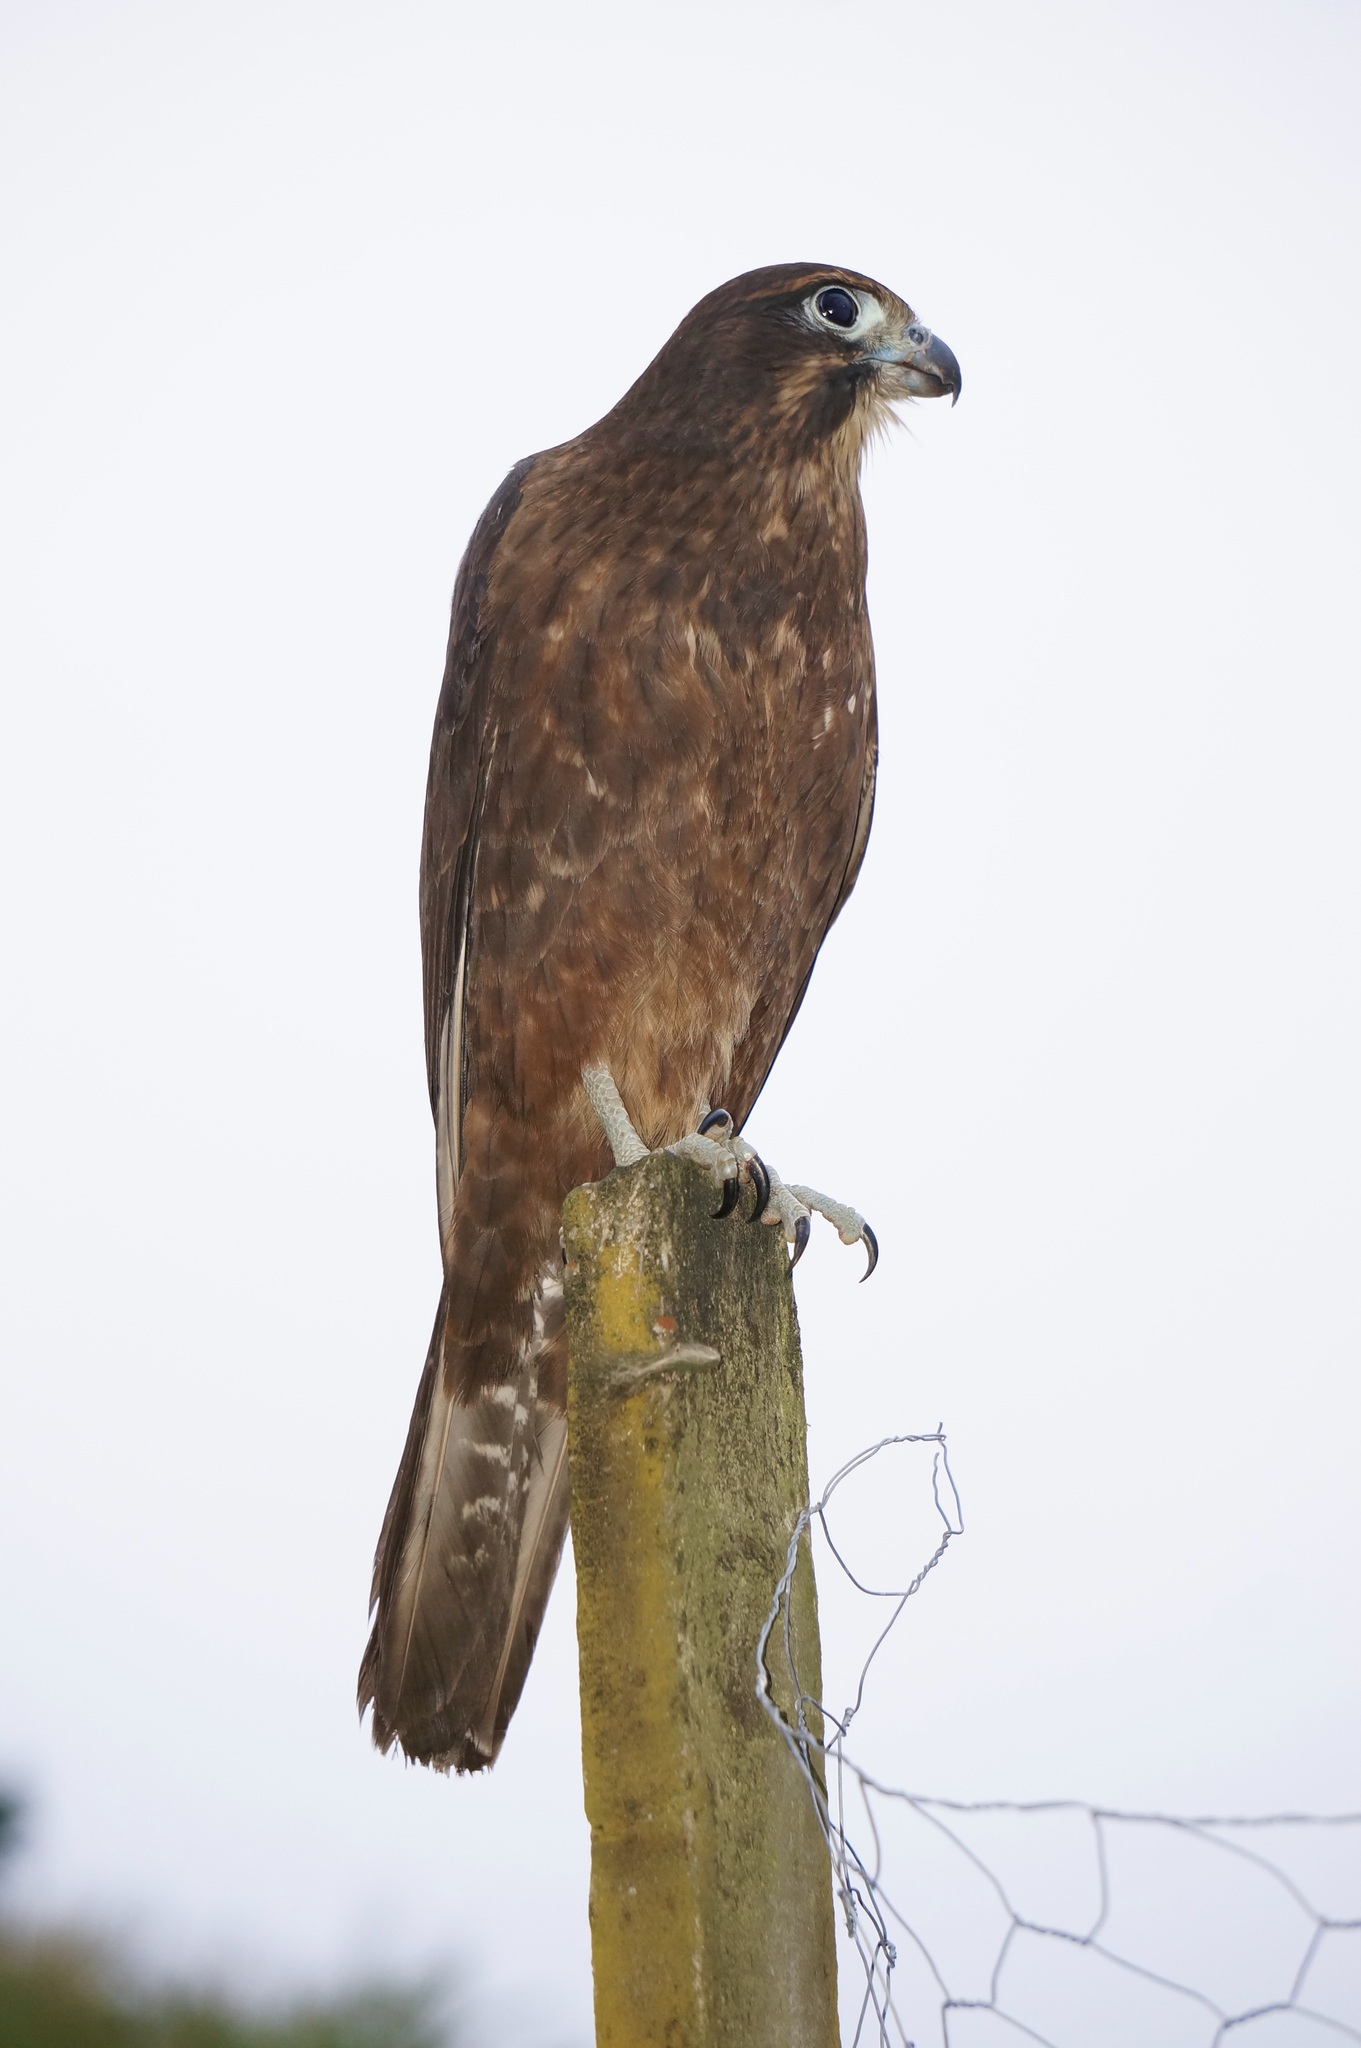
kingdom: Animalia
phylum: Chordata
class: Aves
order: Falconiformes
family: Falconidae
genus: Falco
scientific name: Falco novaeseelandiae
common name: New zealand falcon
